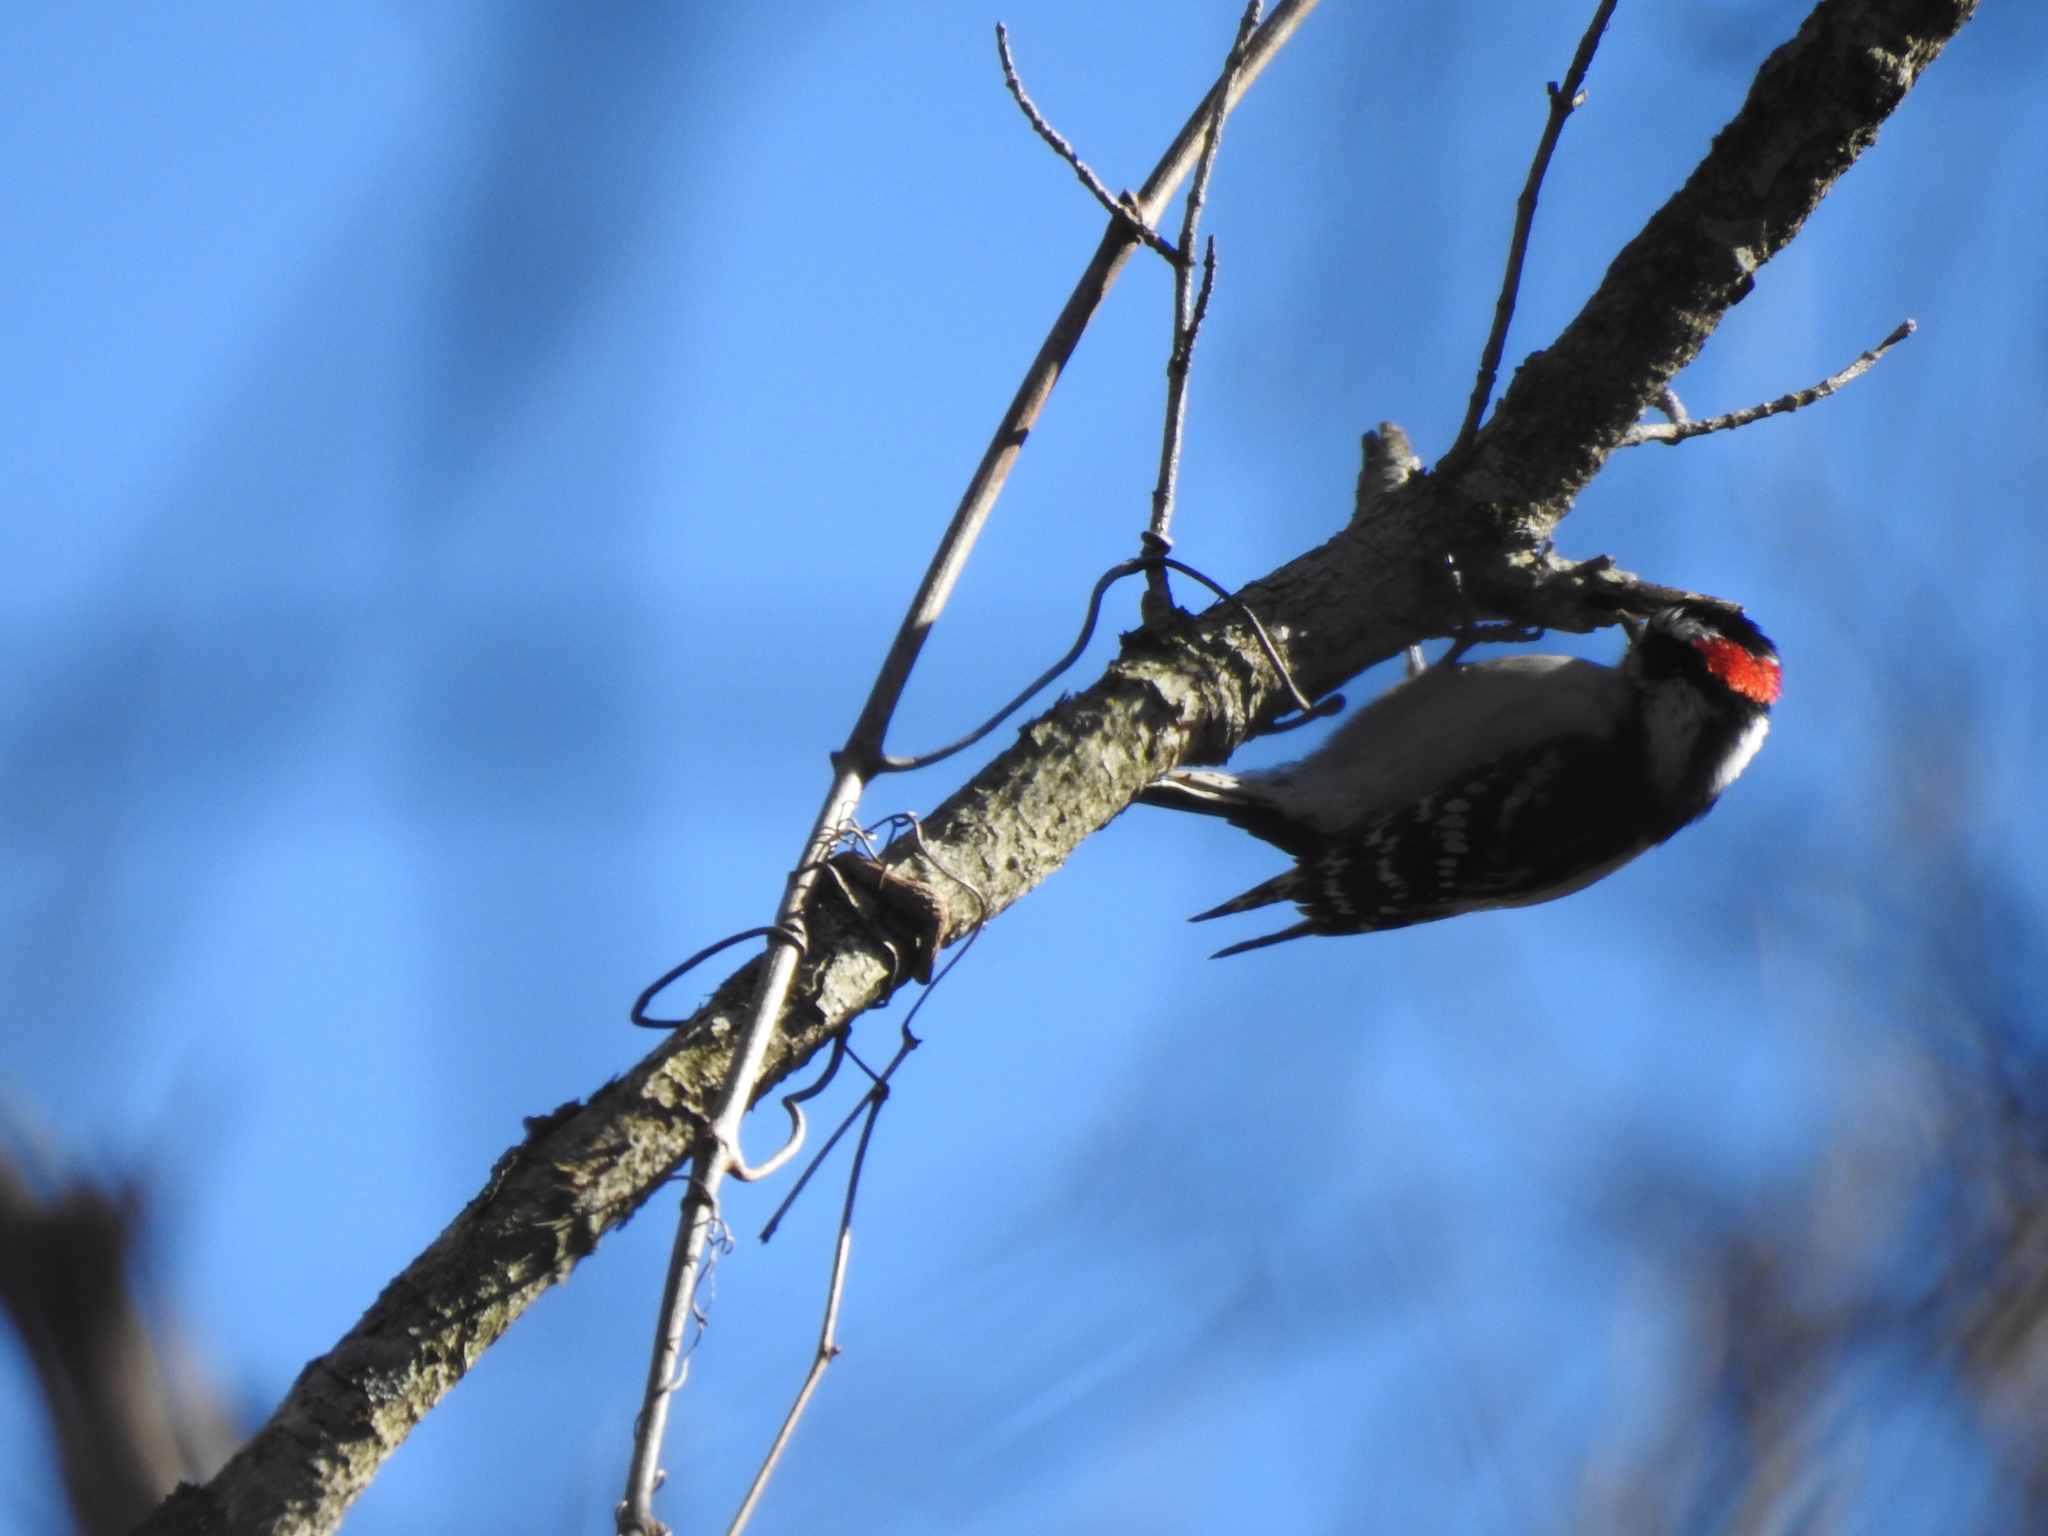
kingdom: Animalia
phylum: Chordata
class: Aves
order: Piciformes
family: Picidae
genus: Dryobates
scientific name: Dryobates pubescens
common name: Downy woodpecker
